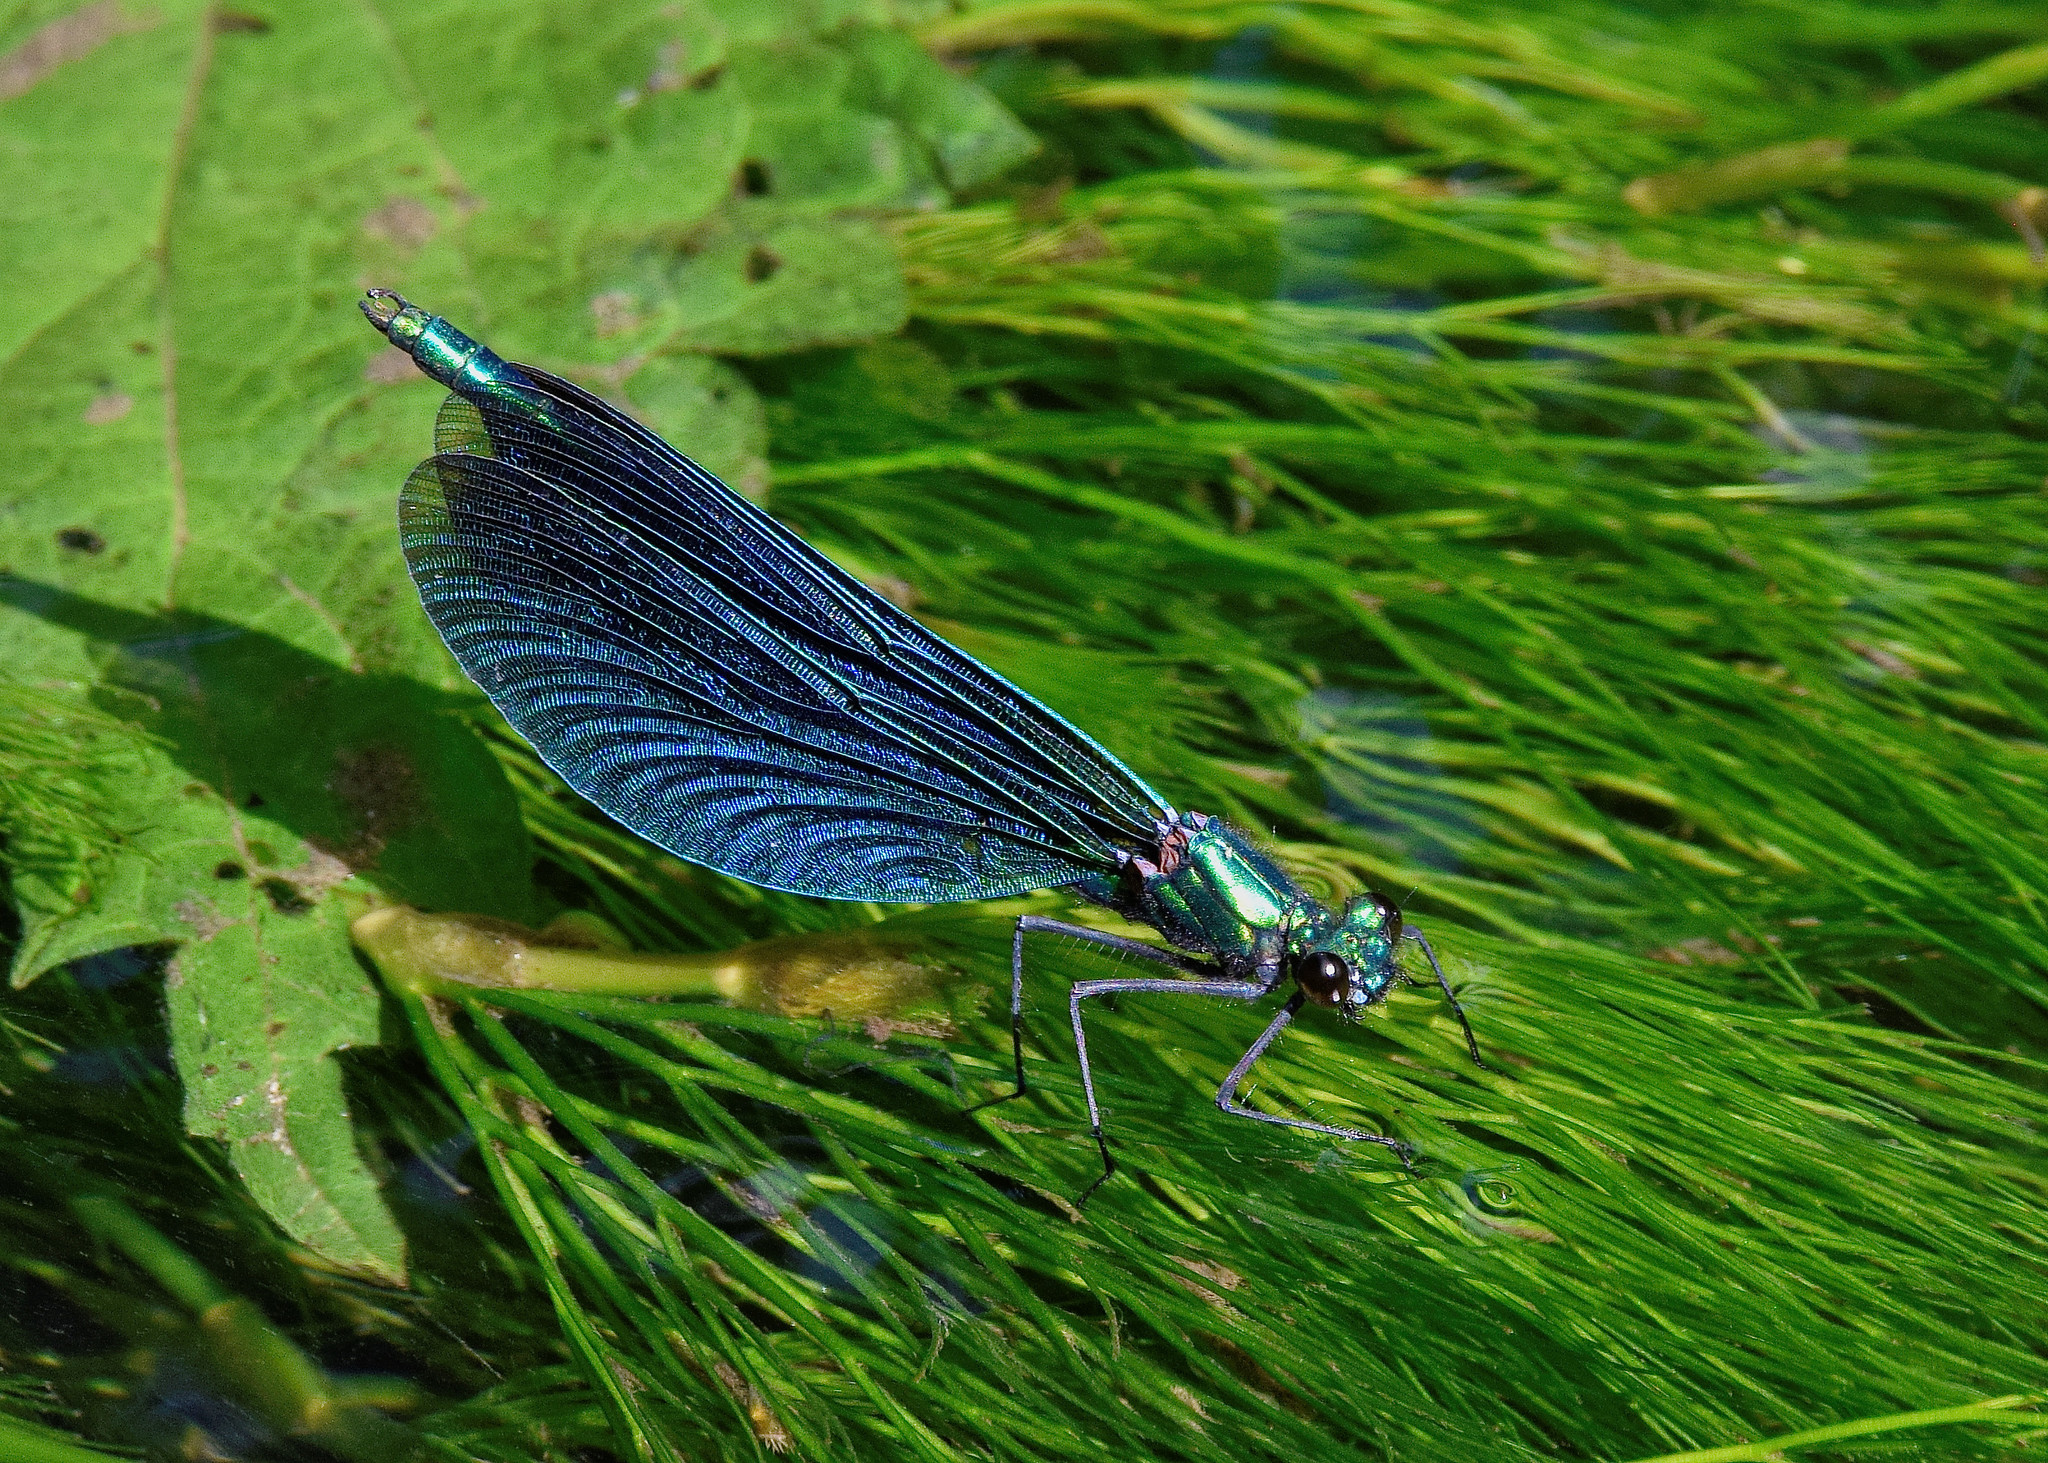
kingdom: Animalia
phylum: Arthropoda
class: Insecta
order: Odonata
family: Calopterygidae
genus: Calopteryx
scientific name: Calopteryx virgo
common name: Beautiful demoiselle
